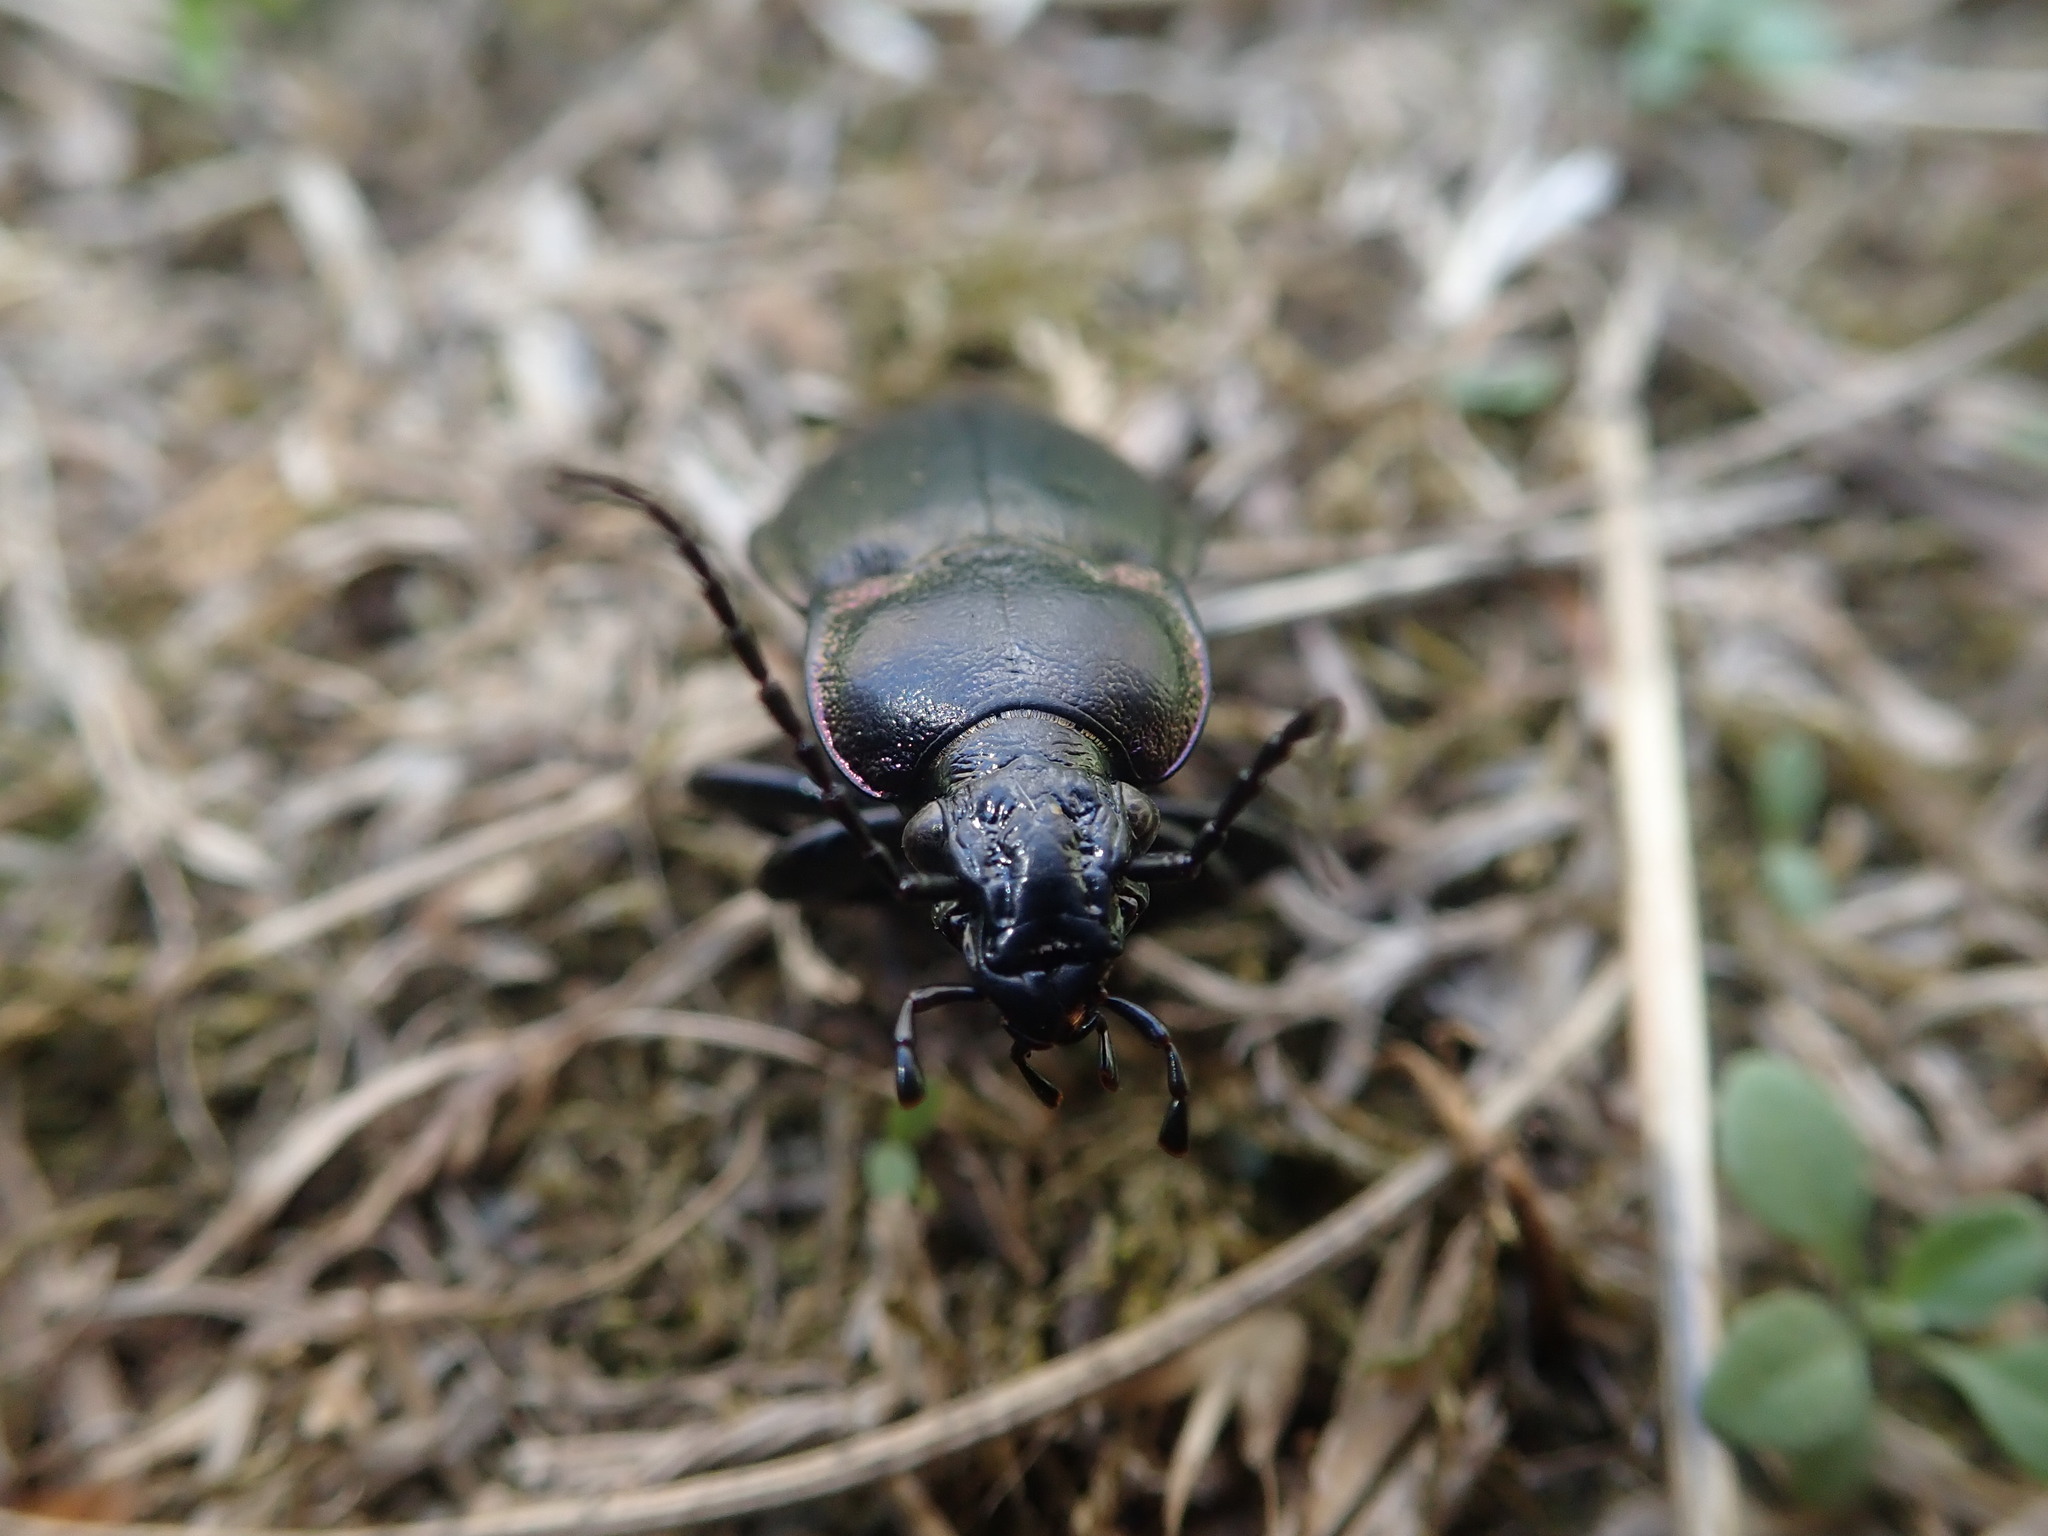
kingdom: Animalia
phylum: Arthropoda
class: Insecta
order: Coleoptera
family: Carabidae
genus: Carabus
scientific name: Carabus nemoralis
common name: European ground beetle
